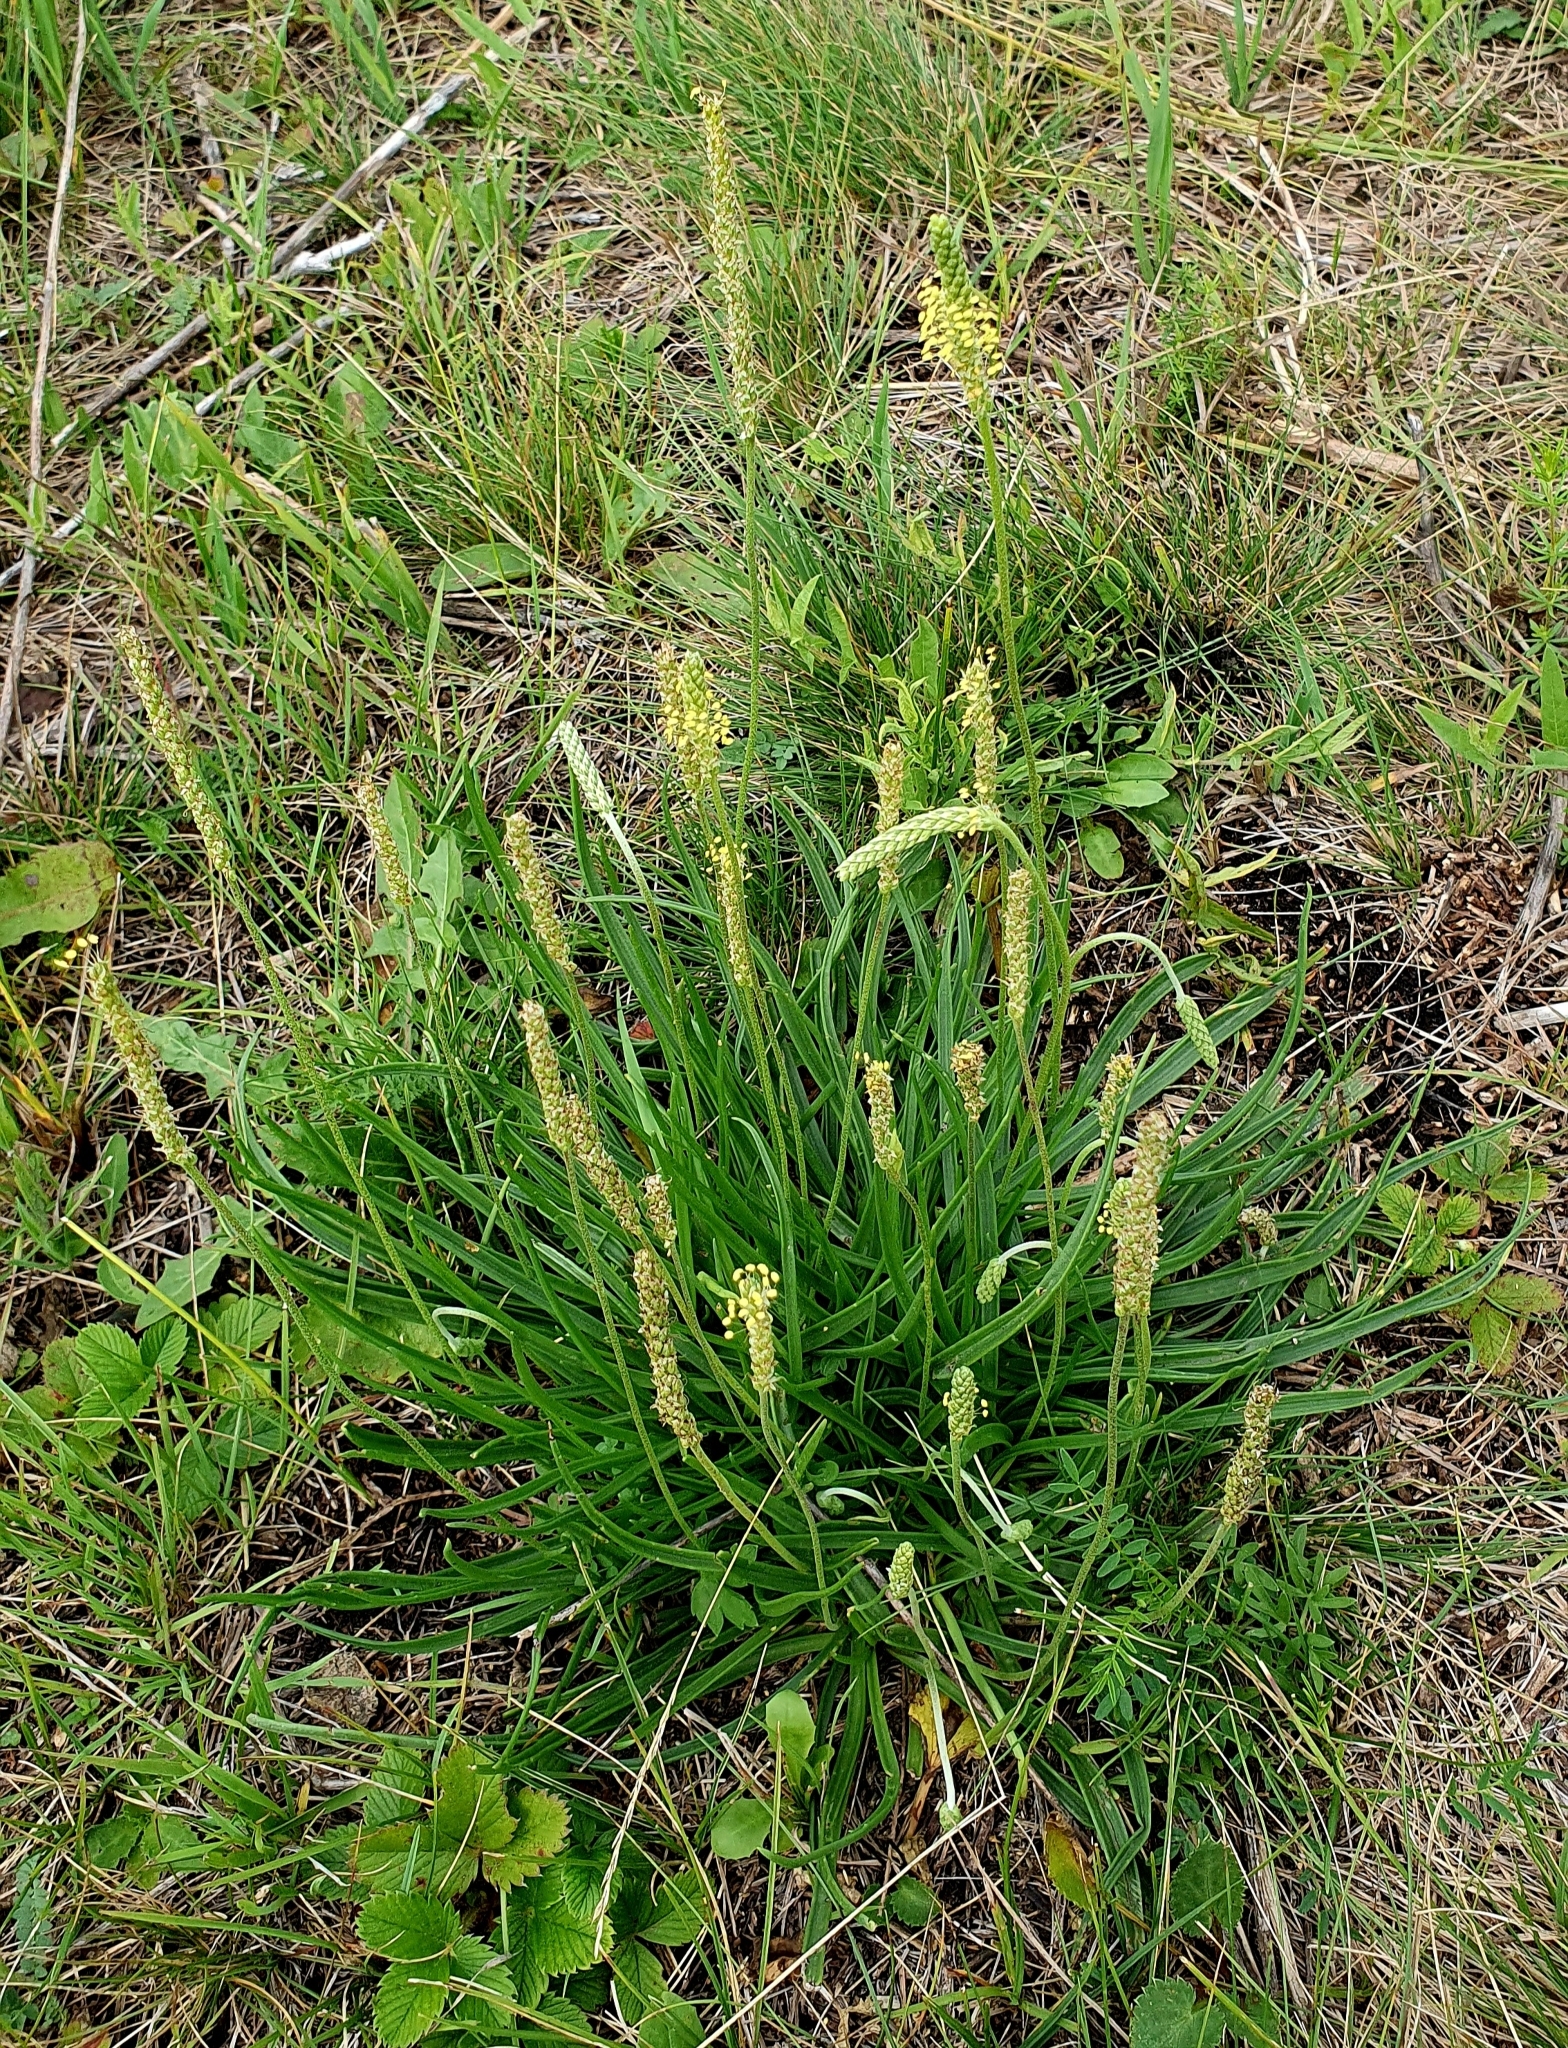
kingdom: Plantae
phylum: Tracheophyta
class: Magnoliopsida
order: Lamiales
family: Plantaginaceae
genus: Plantago
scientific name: Plantago salsa
